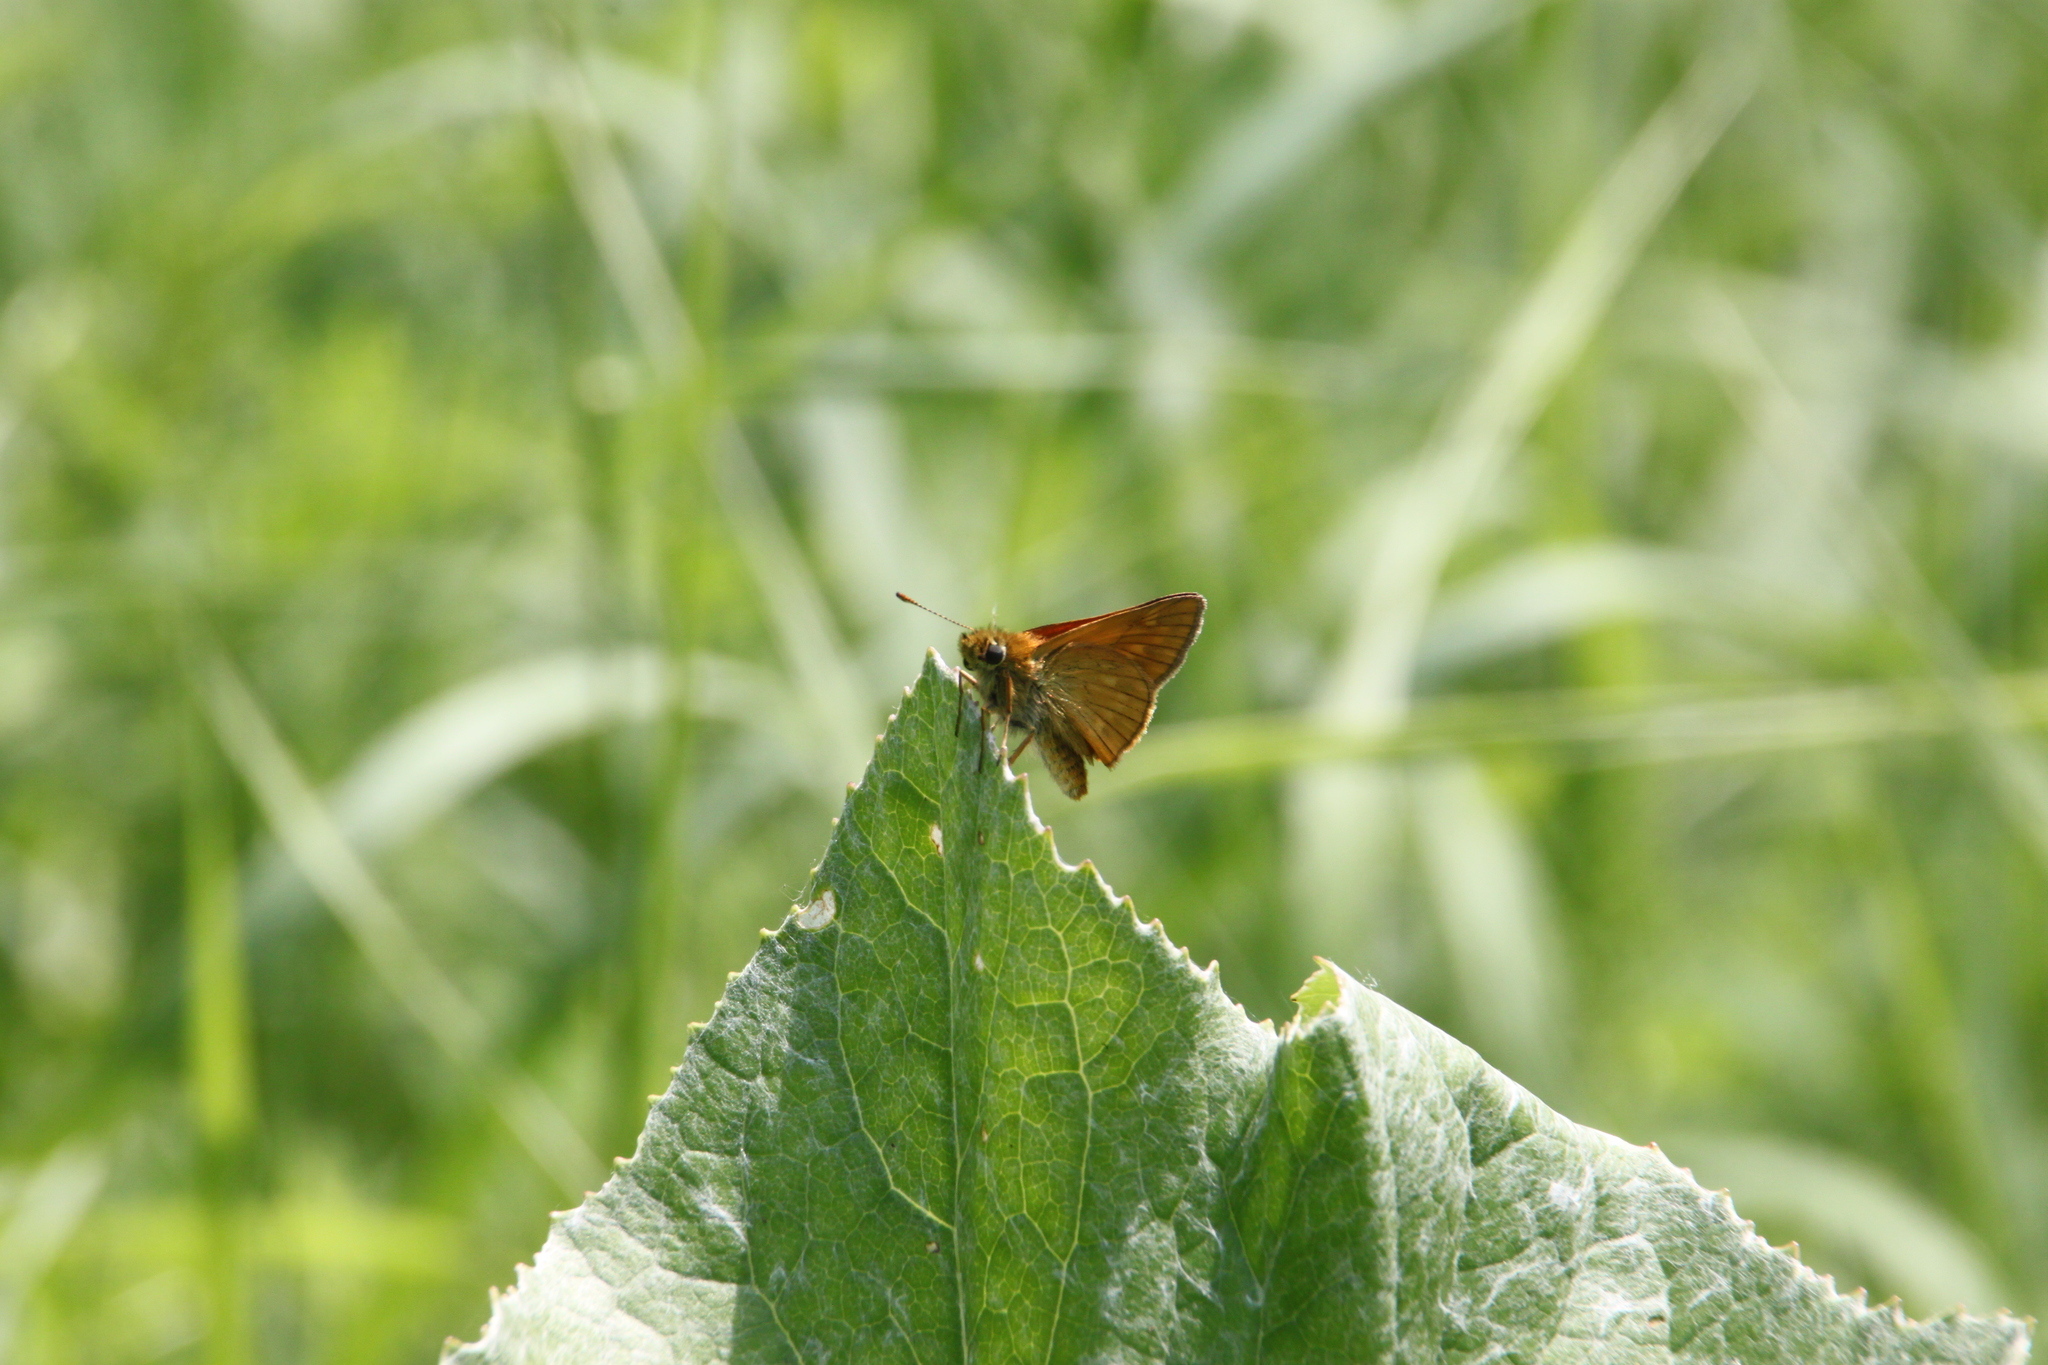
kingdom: Animalia
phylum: Arthropoda
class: Insecta
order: Lepidoptera
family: Hesperiidae
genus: Ochlodes
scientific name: Ochlodes venata
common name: Large skipper
